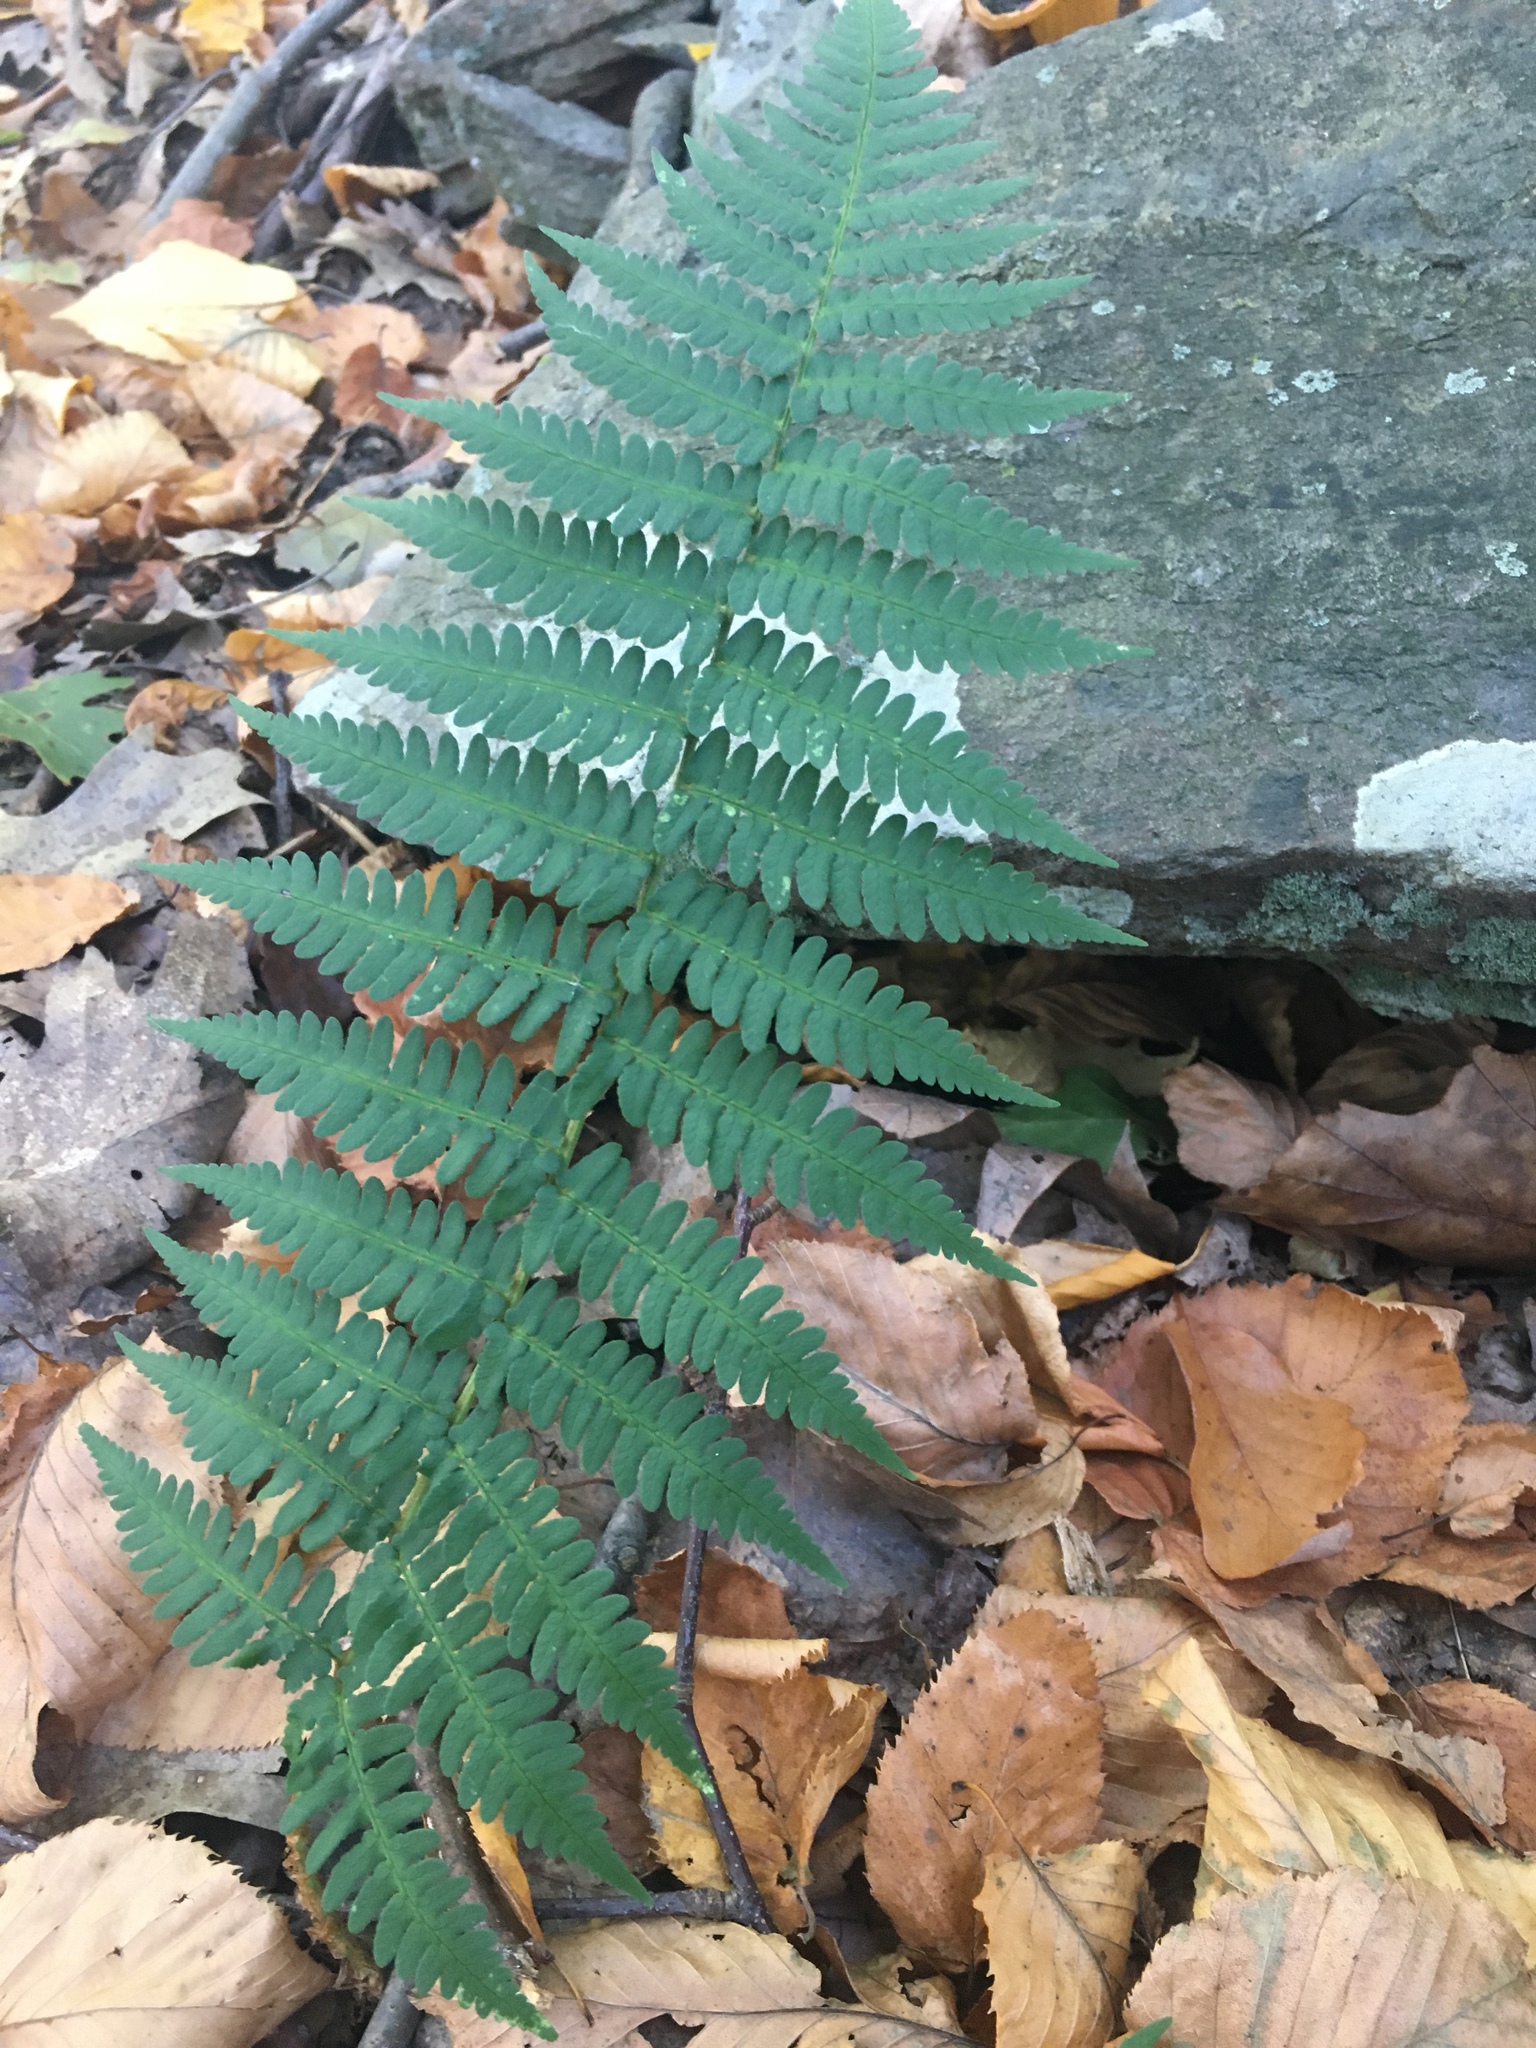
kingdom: Plantae
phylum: Tracheophyta
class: Polypodiopsida
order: Polypodiales
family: Dryopteridaceae
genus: Dryopteris
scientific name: Dryopteris marginalis
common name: Marginal wood fern
